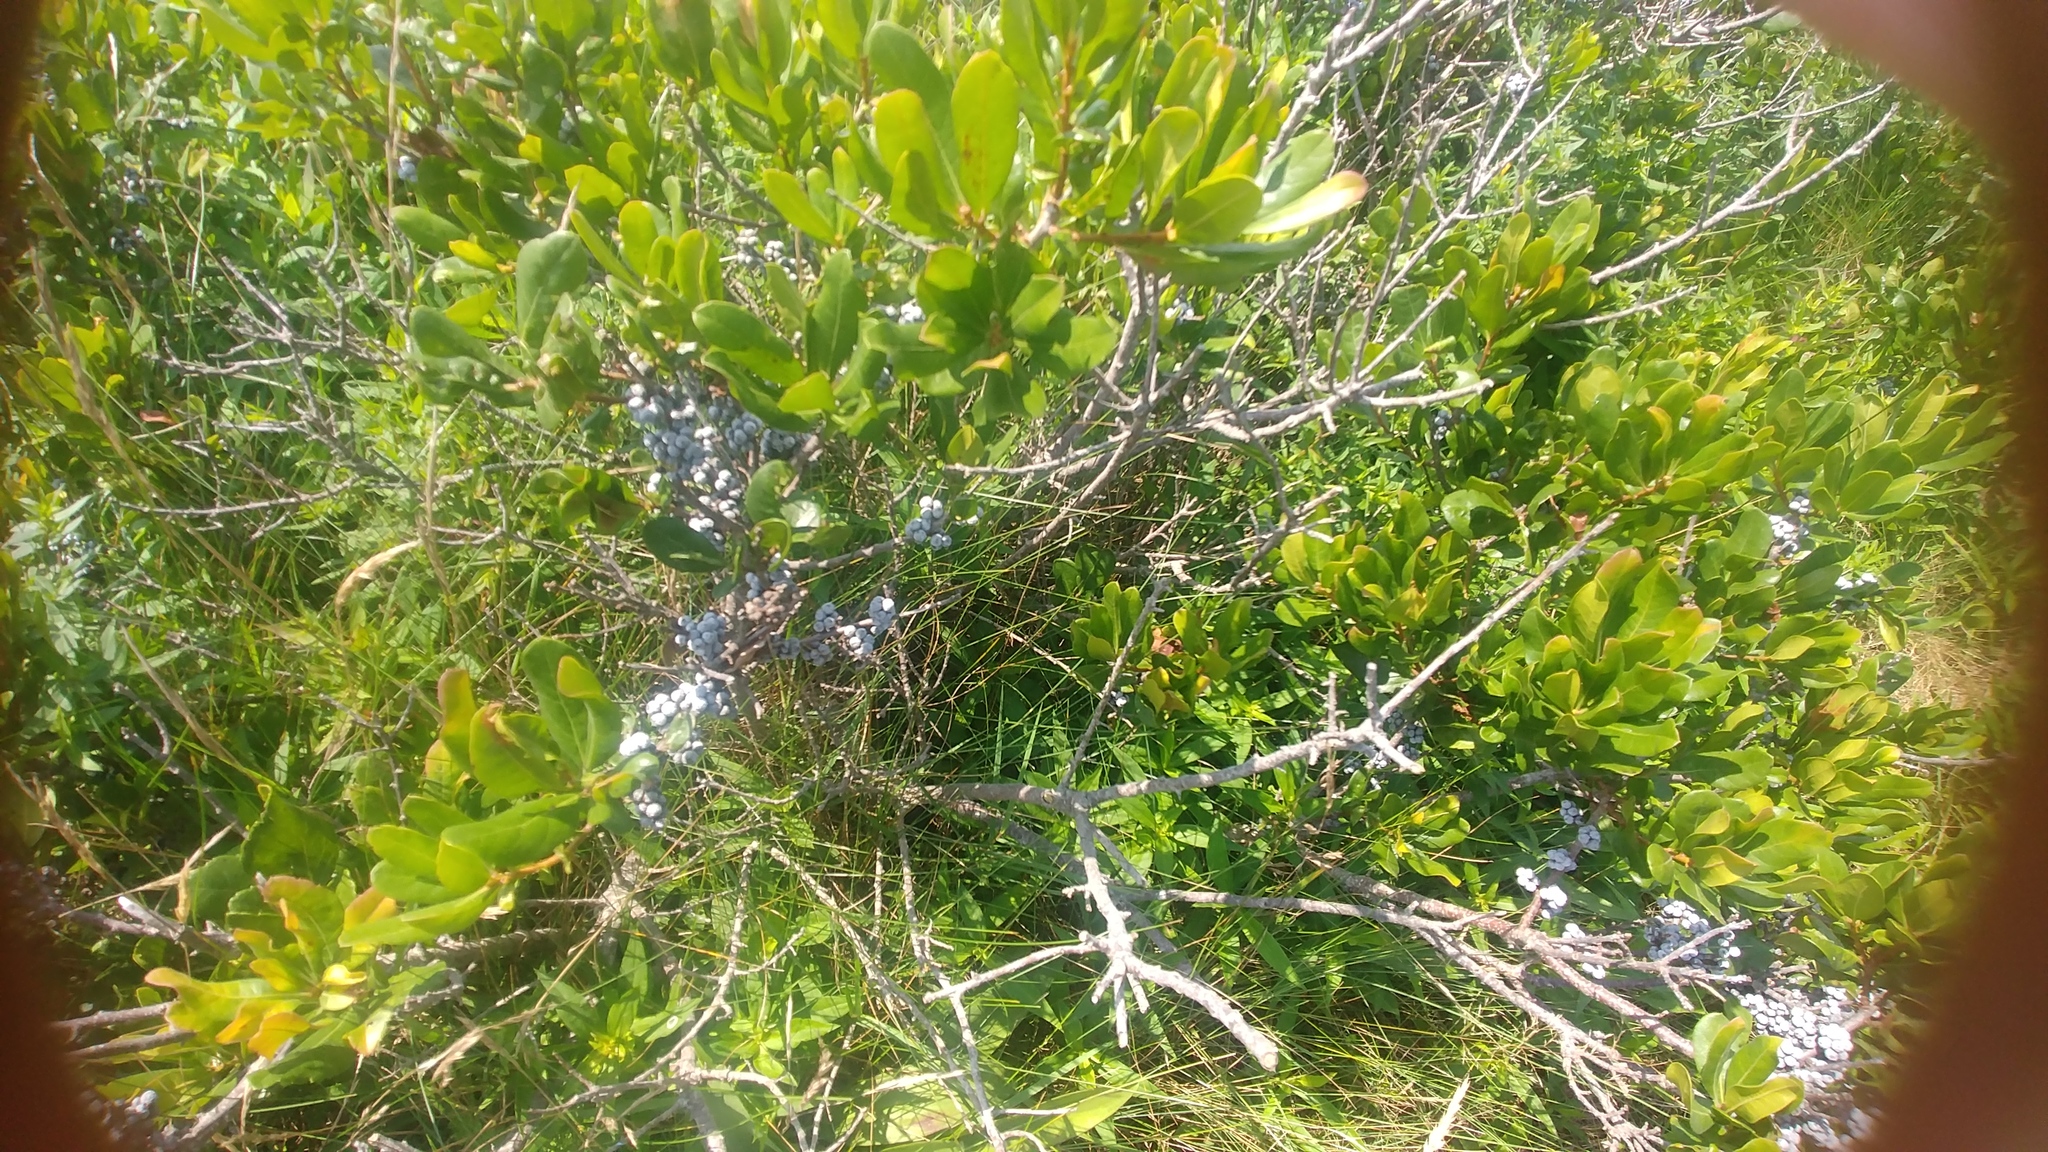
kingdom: Plantae
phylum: Tracheophyta
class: Magnoliopsida
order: Fagales
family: Myricaceae
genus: Morella
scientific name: Morella pensylvanica
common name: Northern bayberry
